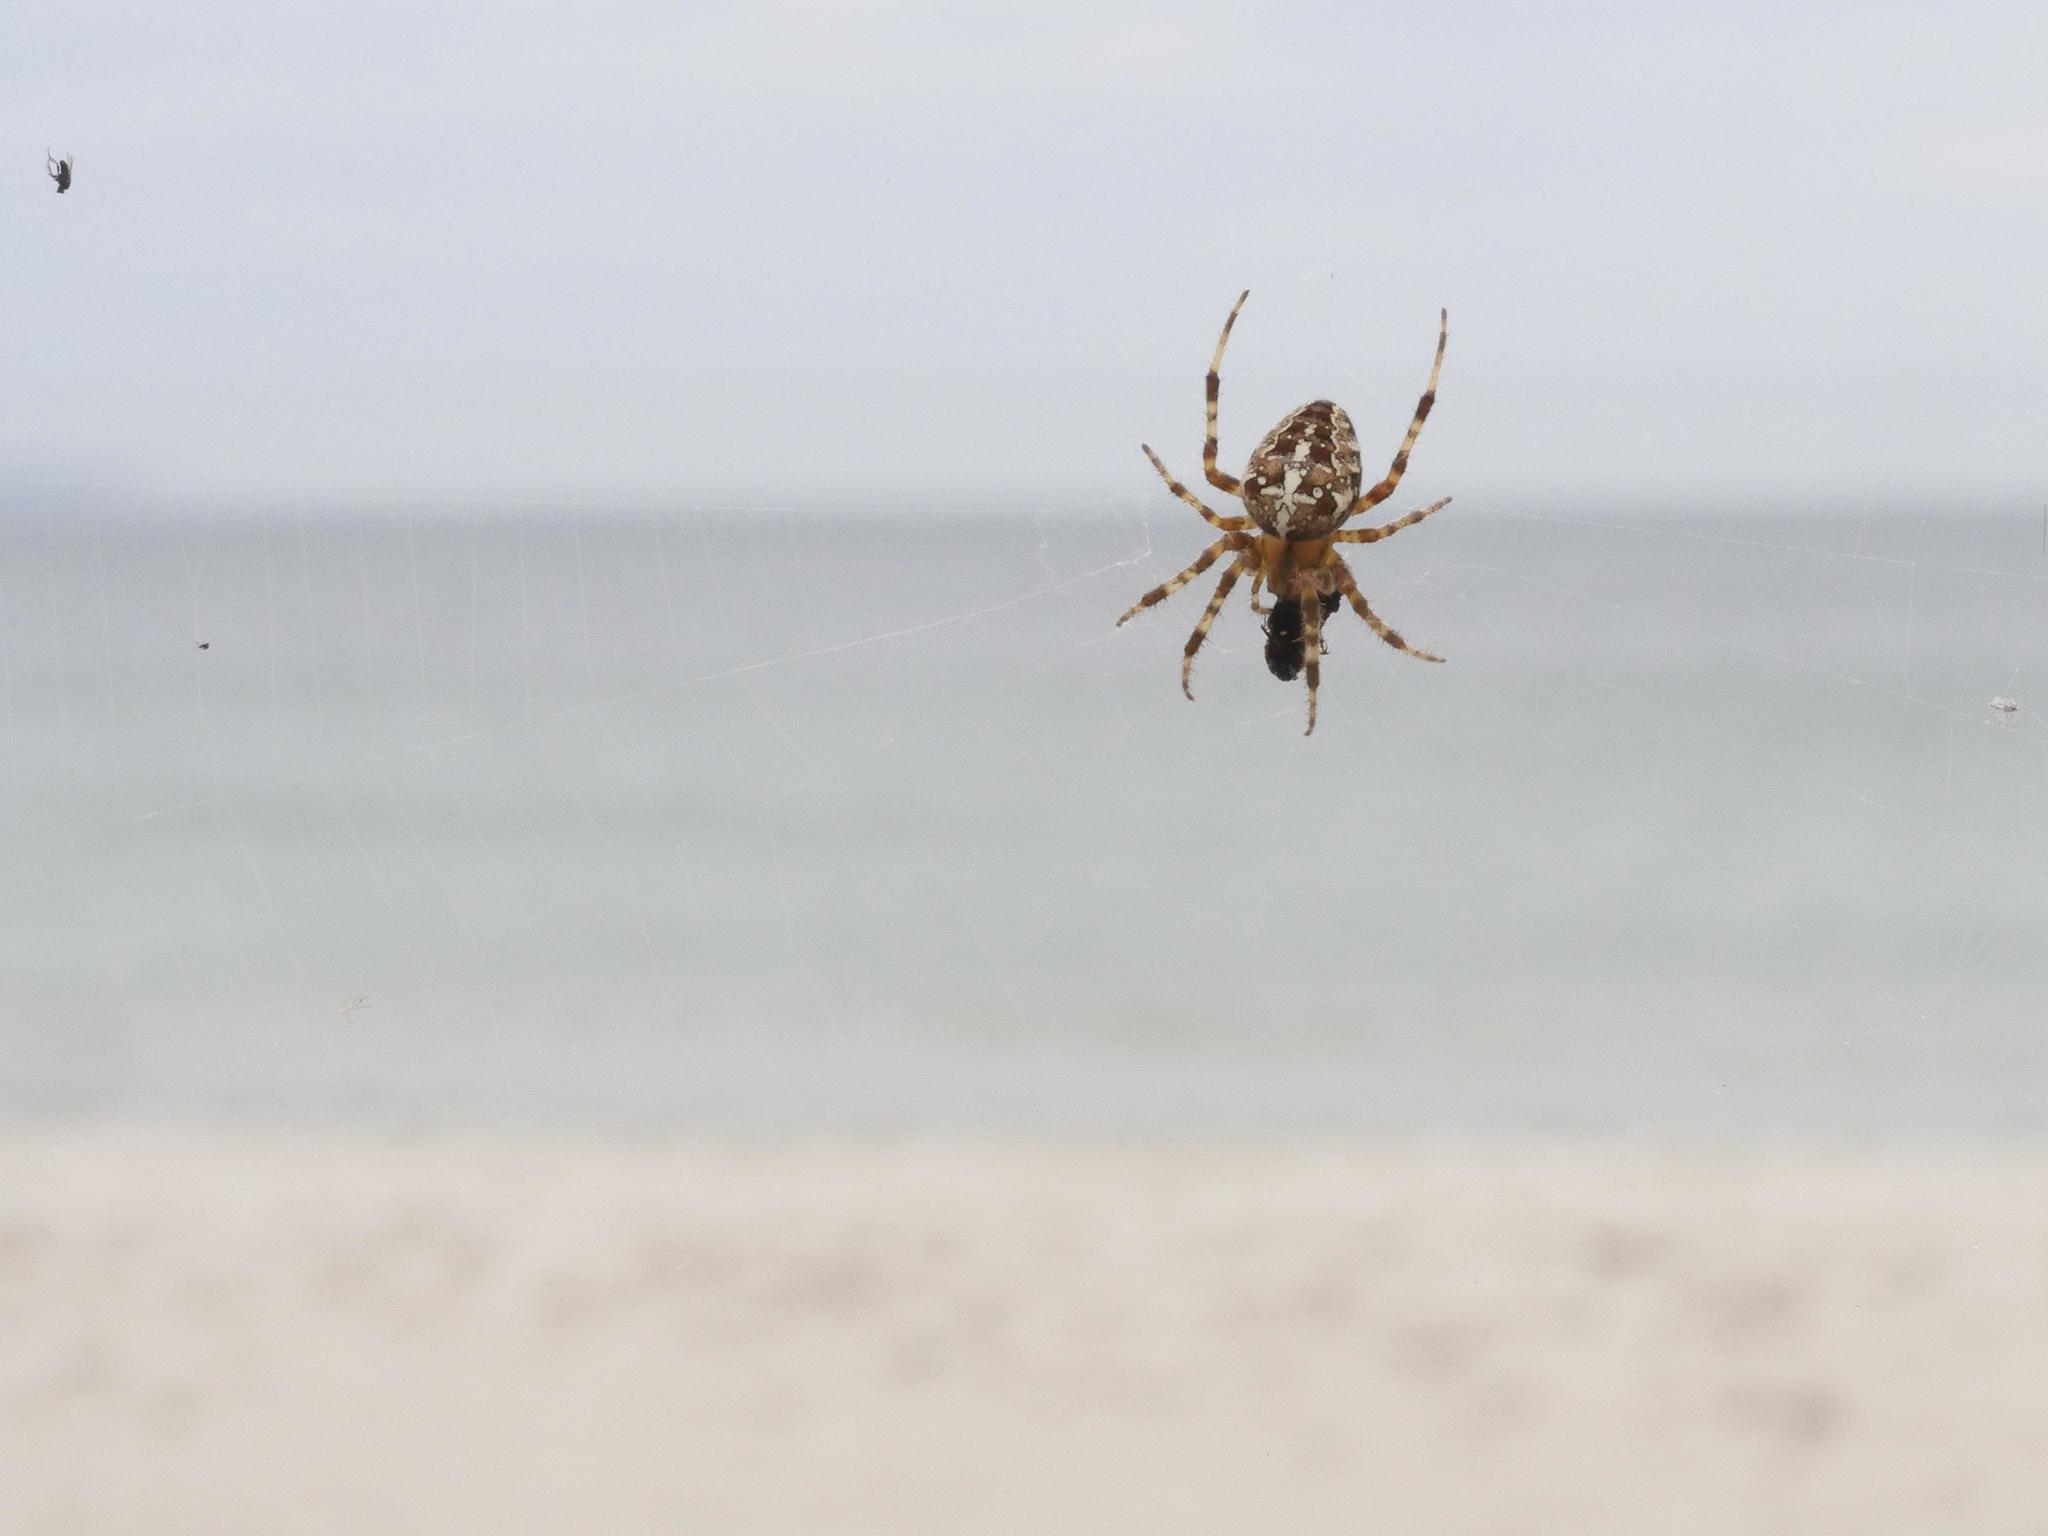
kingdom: Animalia
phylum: Arthropoda
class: Arachnida
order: Araneae
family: Araneidae
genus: Araneus
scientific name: Araneus diadematus
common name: Cross orbweaver
